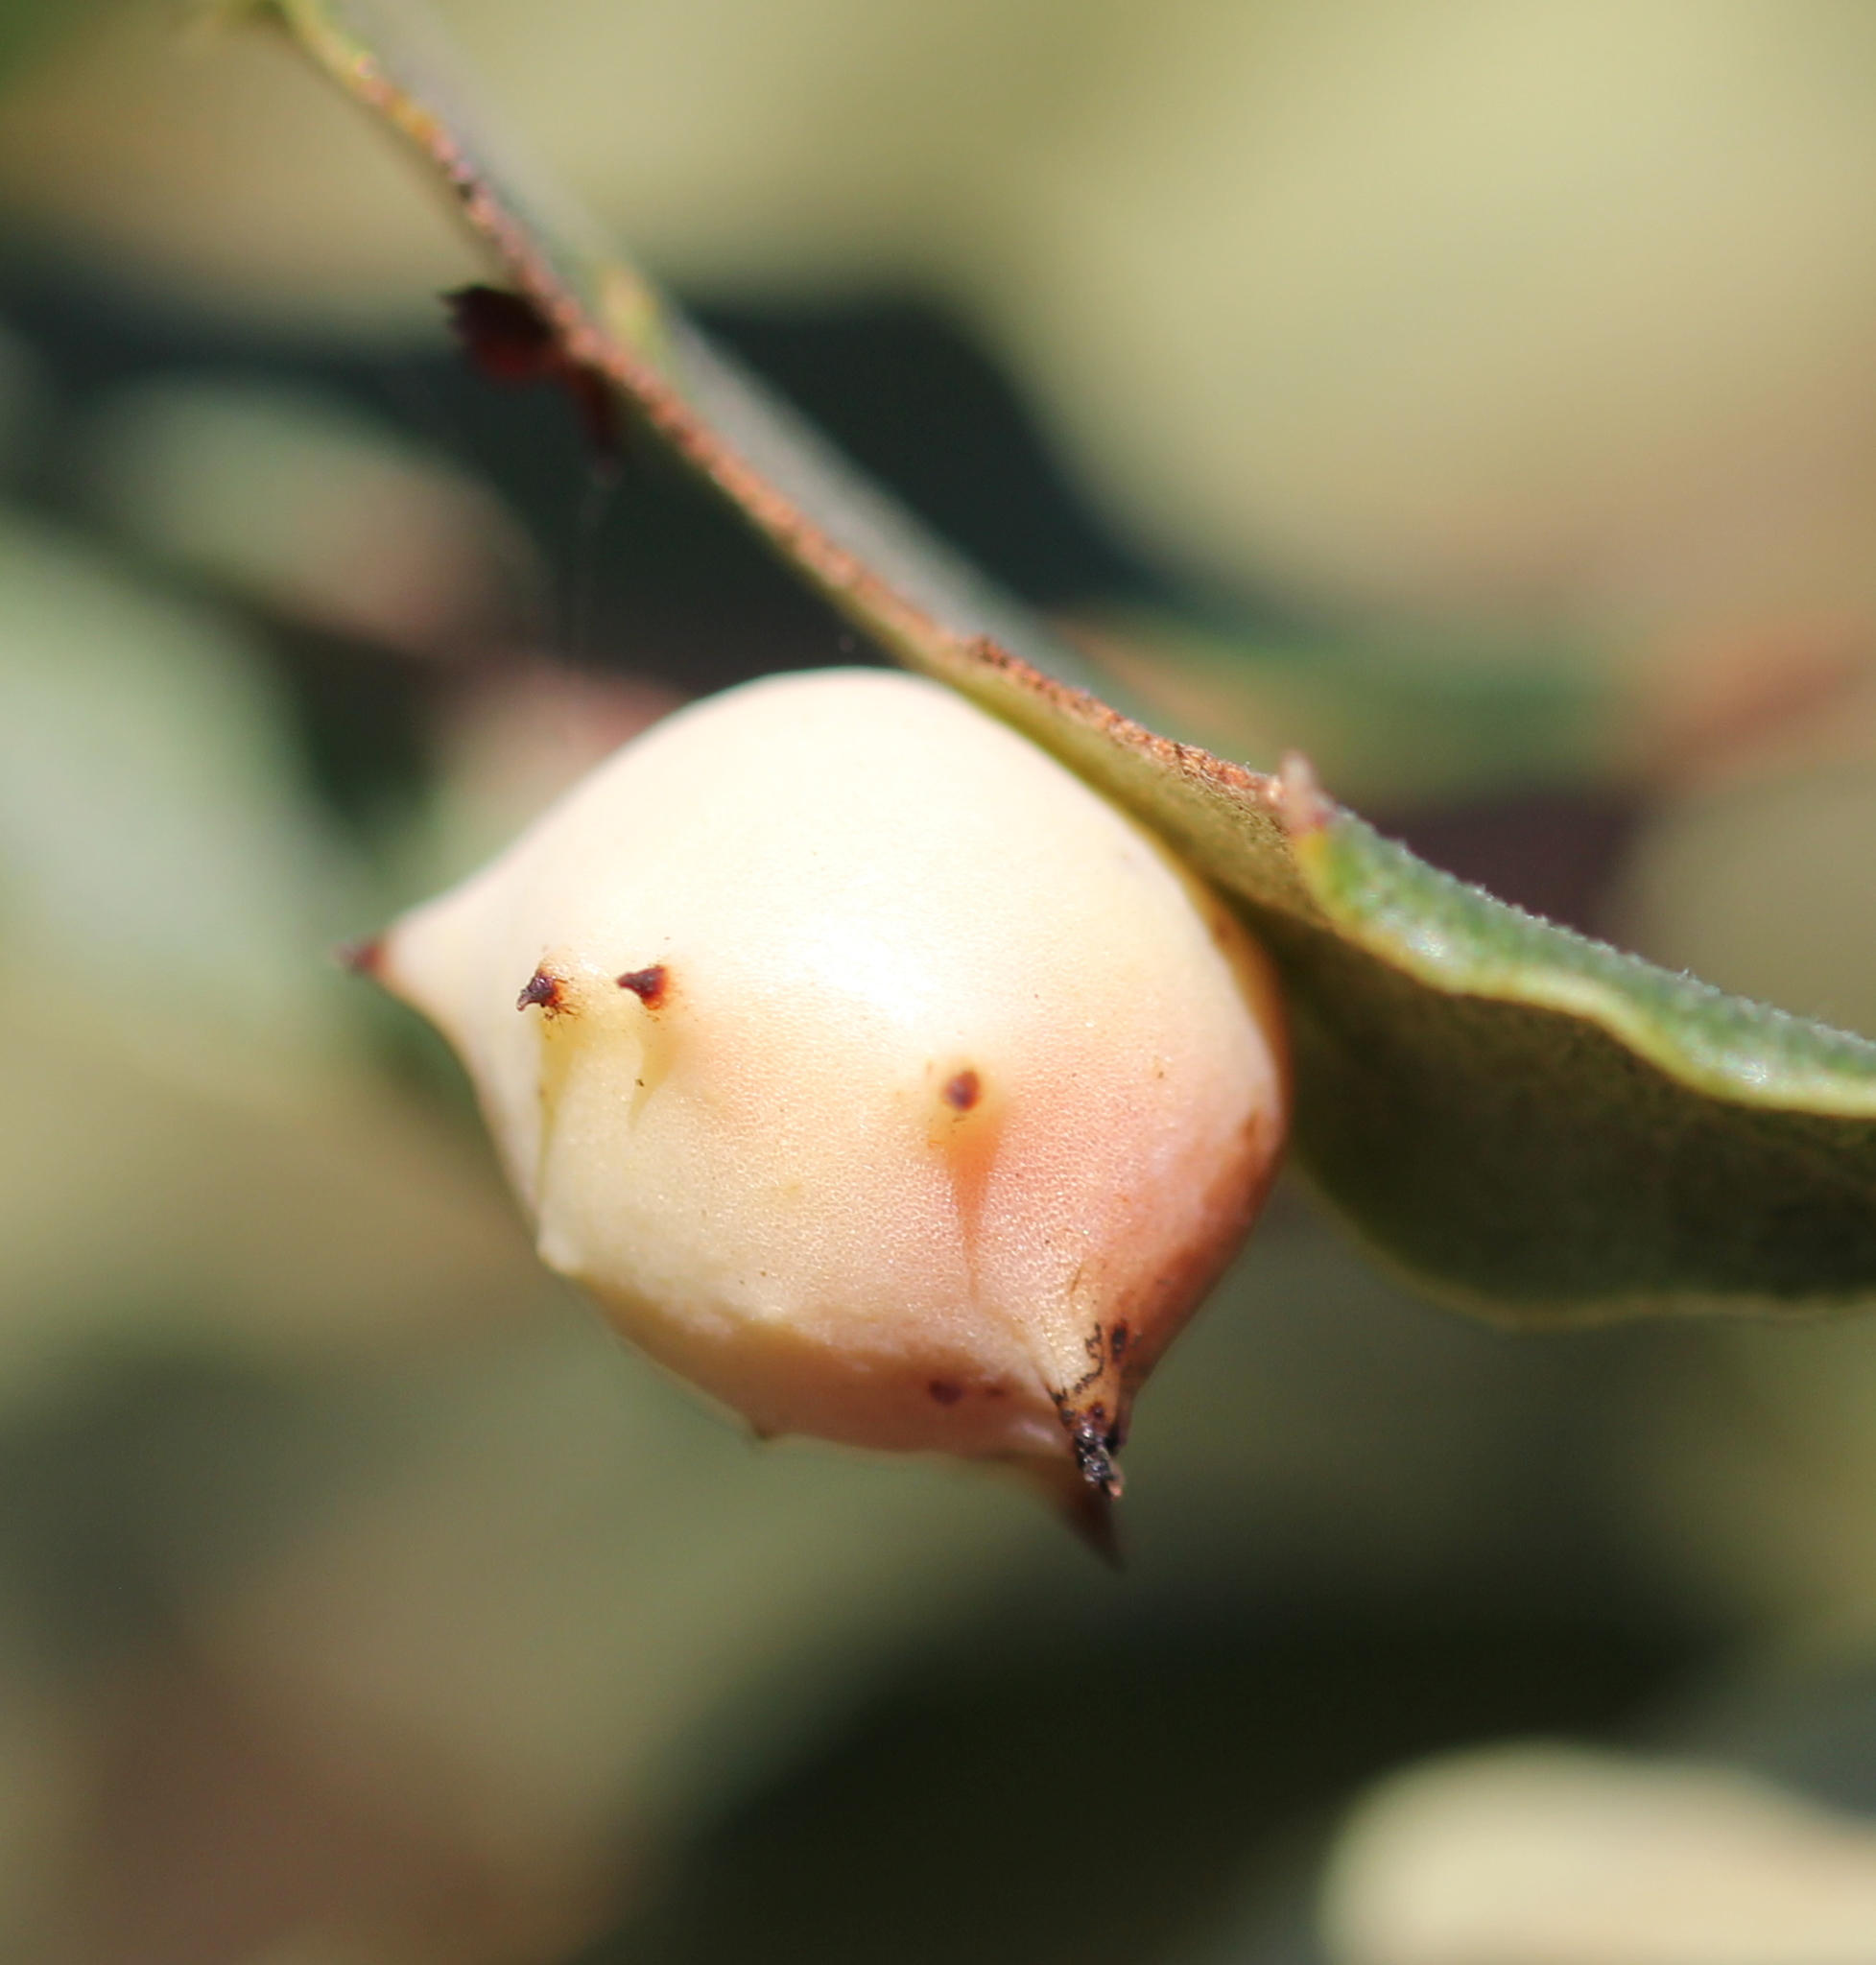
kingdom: Animalia
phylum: Arthropoda
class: Insecta
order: Hymenoptera
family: Cynipidae
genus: Cynips
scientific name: Cynips douglasi
